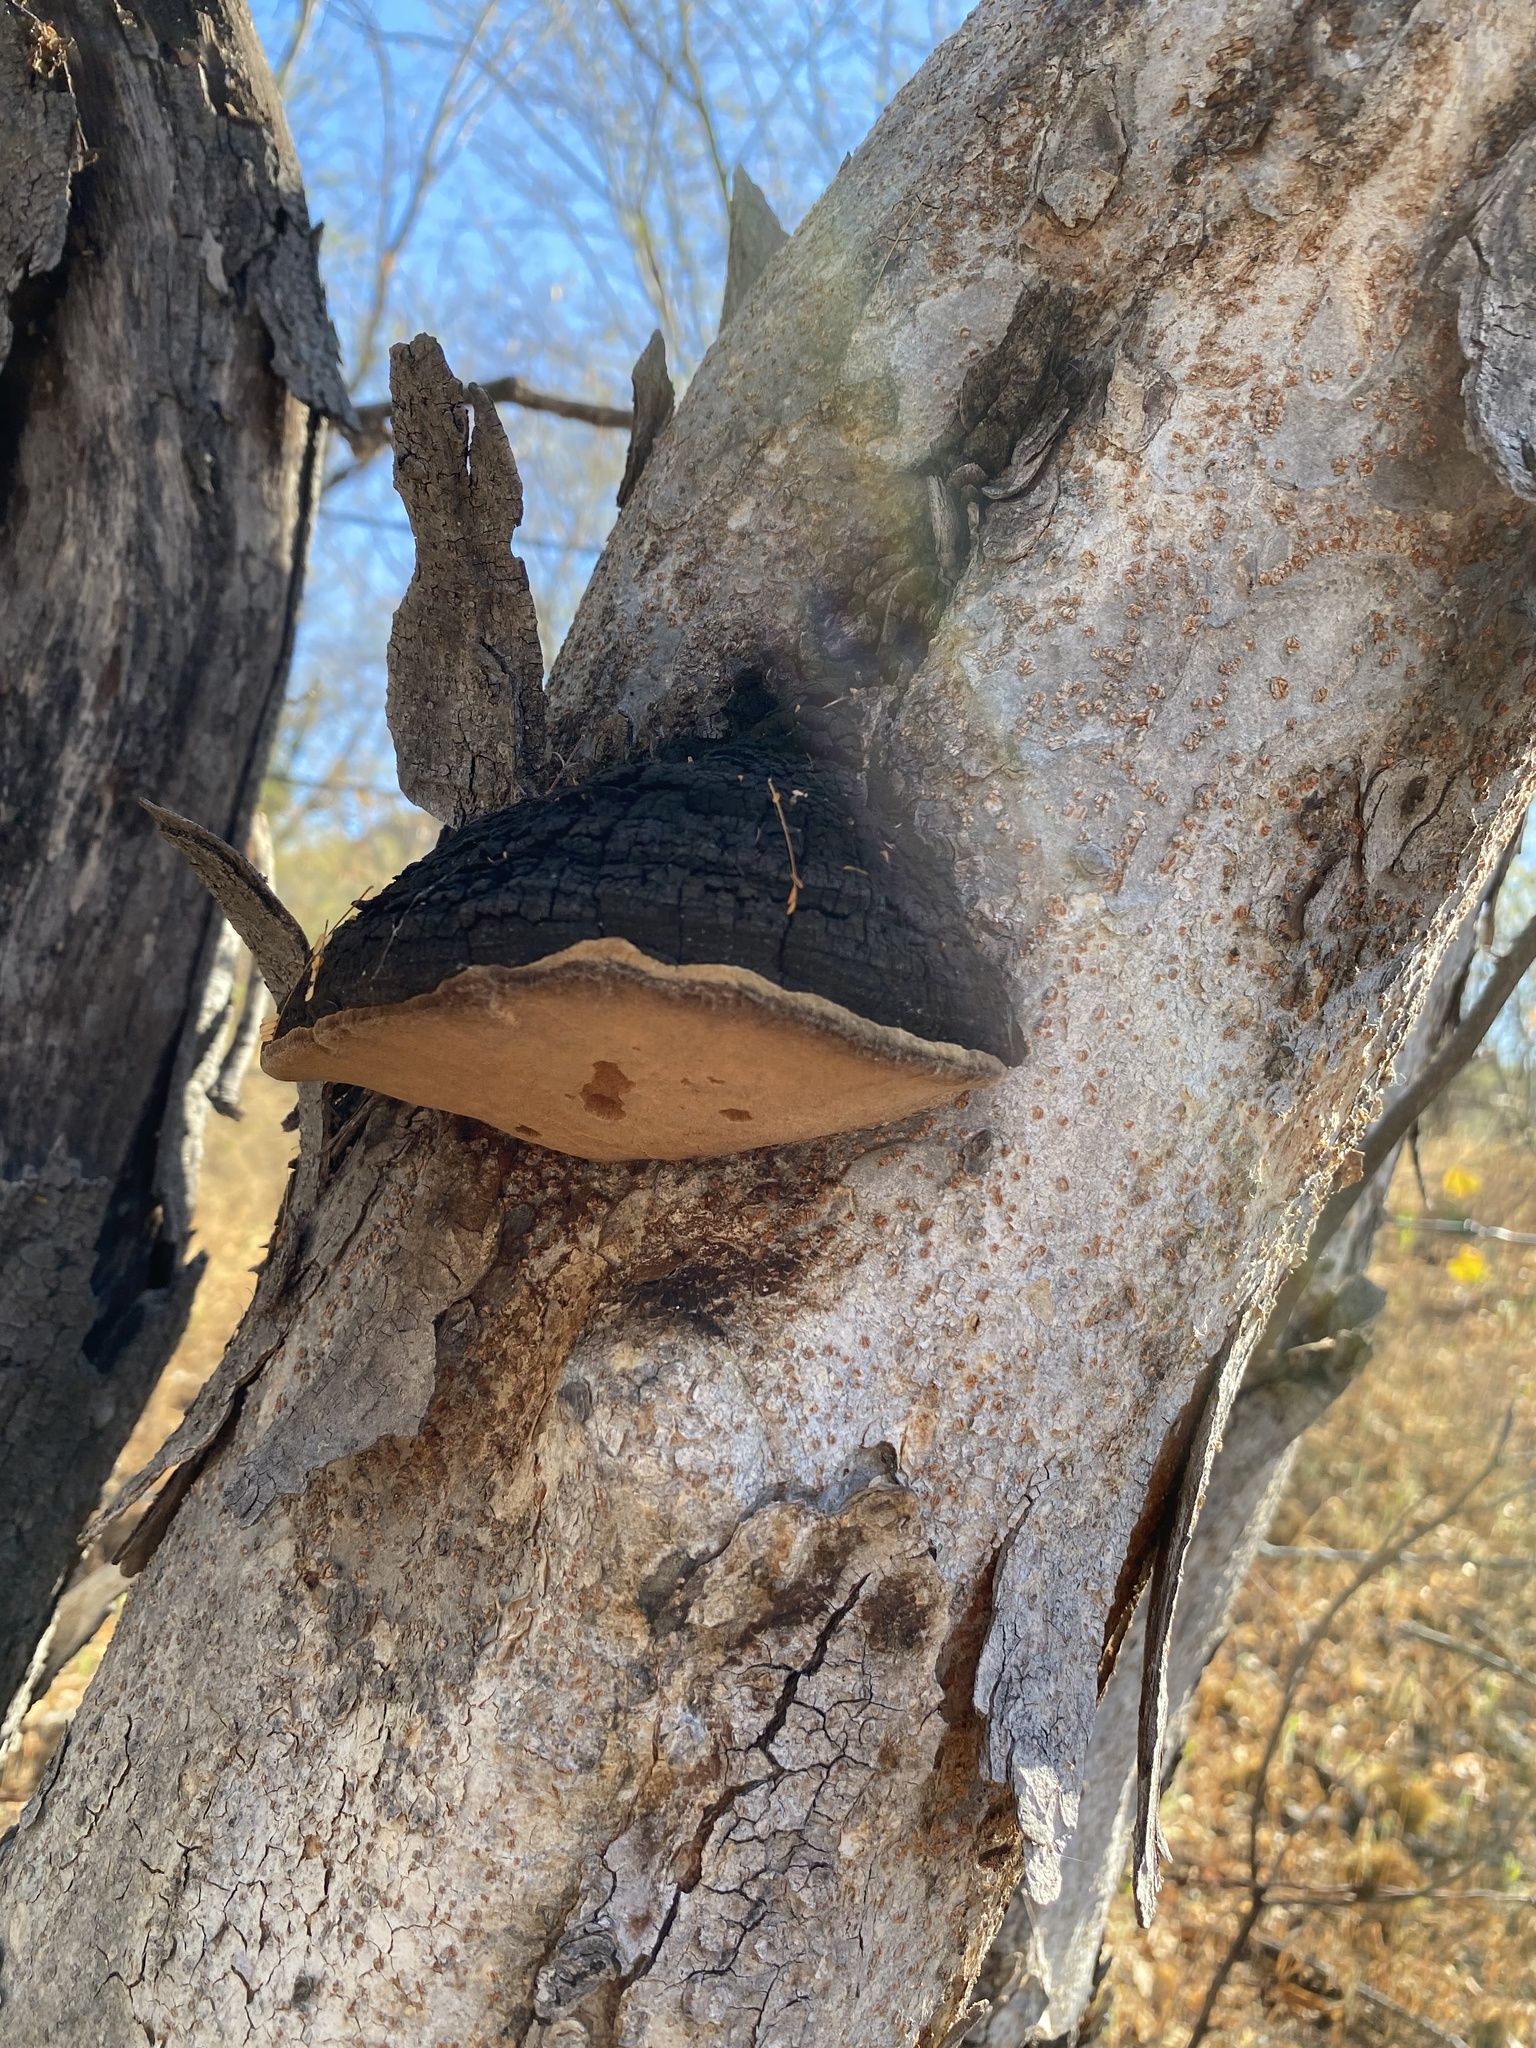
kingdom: Fungi
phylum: Basidiomycota
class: Agaricomycetes
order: Hymenochaetales
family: Hymenochaetaceae
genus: Phellinus
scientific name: Phellinus robiniae
